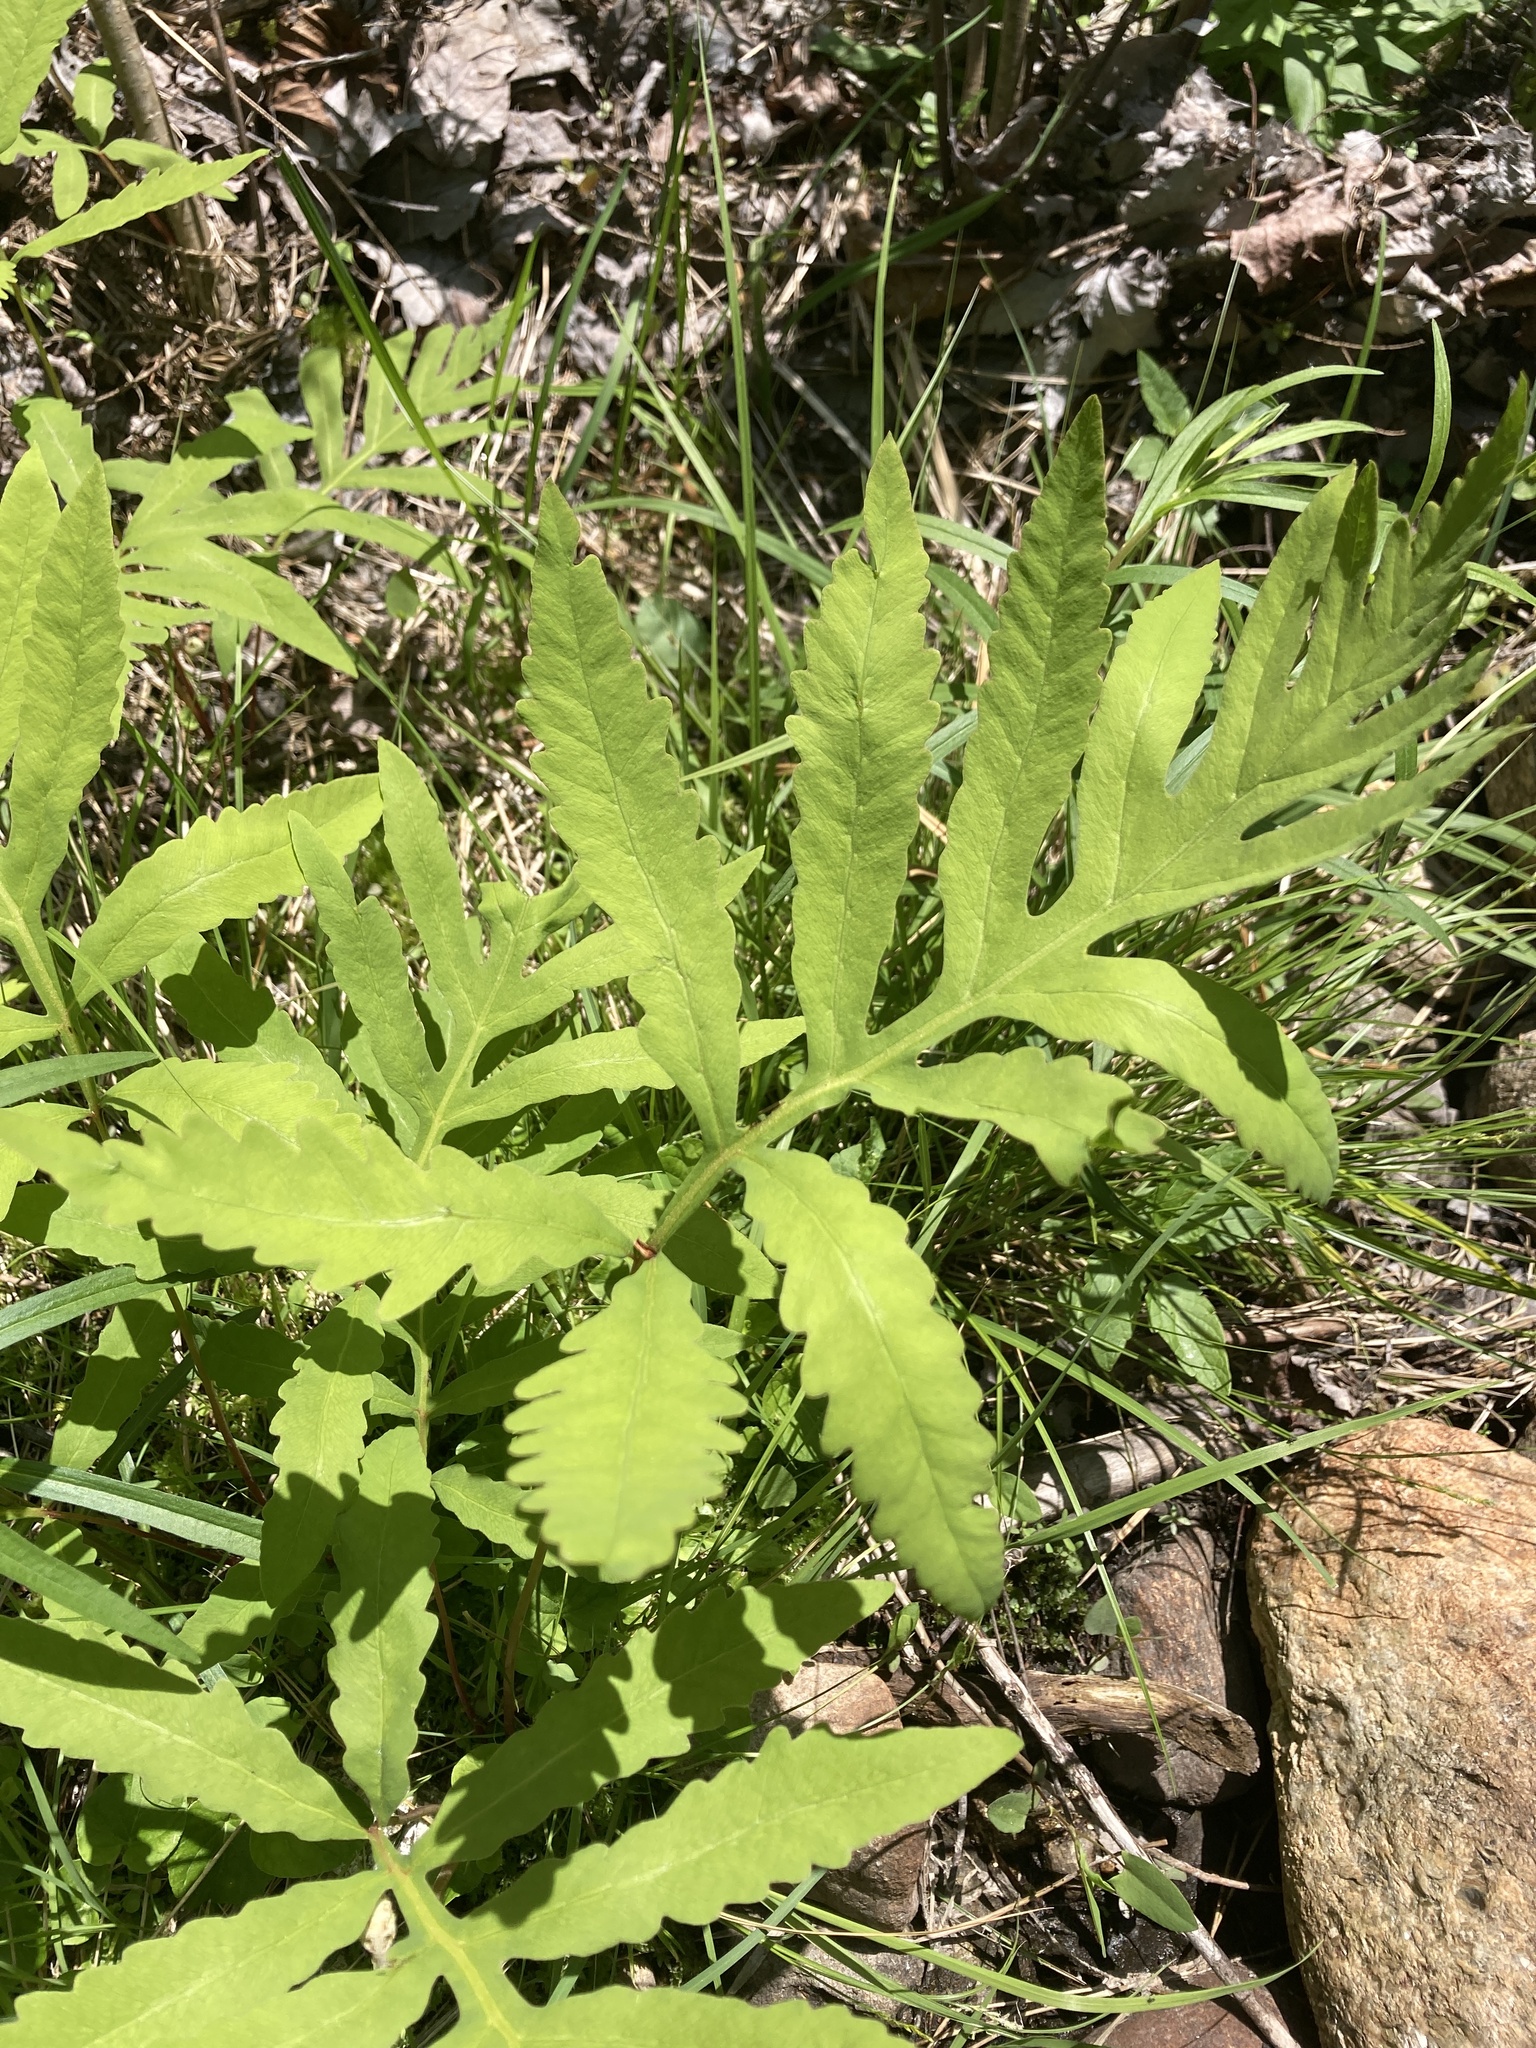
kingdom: Plantae
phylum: Tracheophyta
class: Polypodiopsida
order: Polypodiales
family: Onocleaceae
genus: Onoclea
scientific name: Onoclea sensibilis
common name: Sensitive fern
